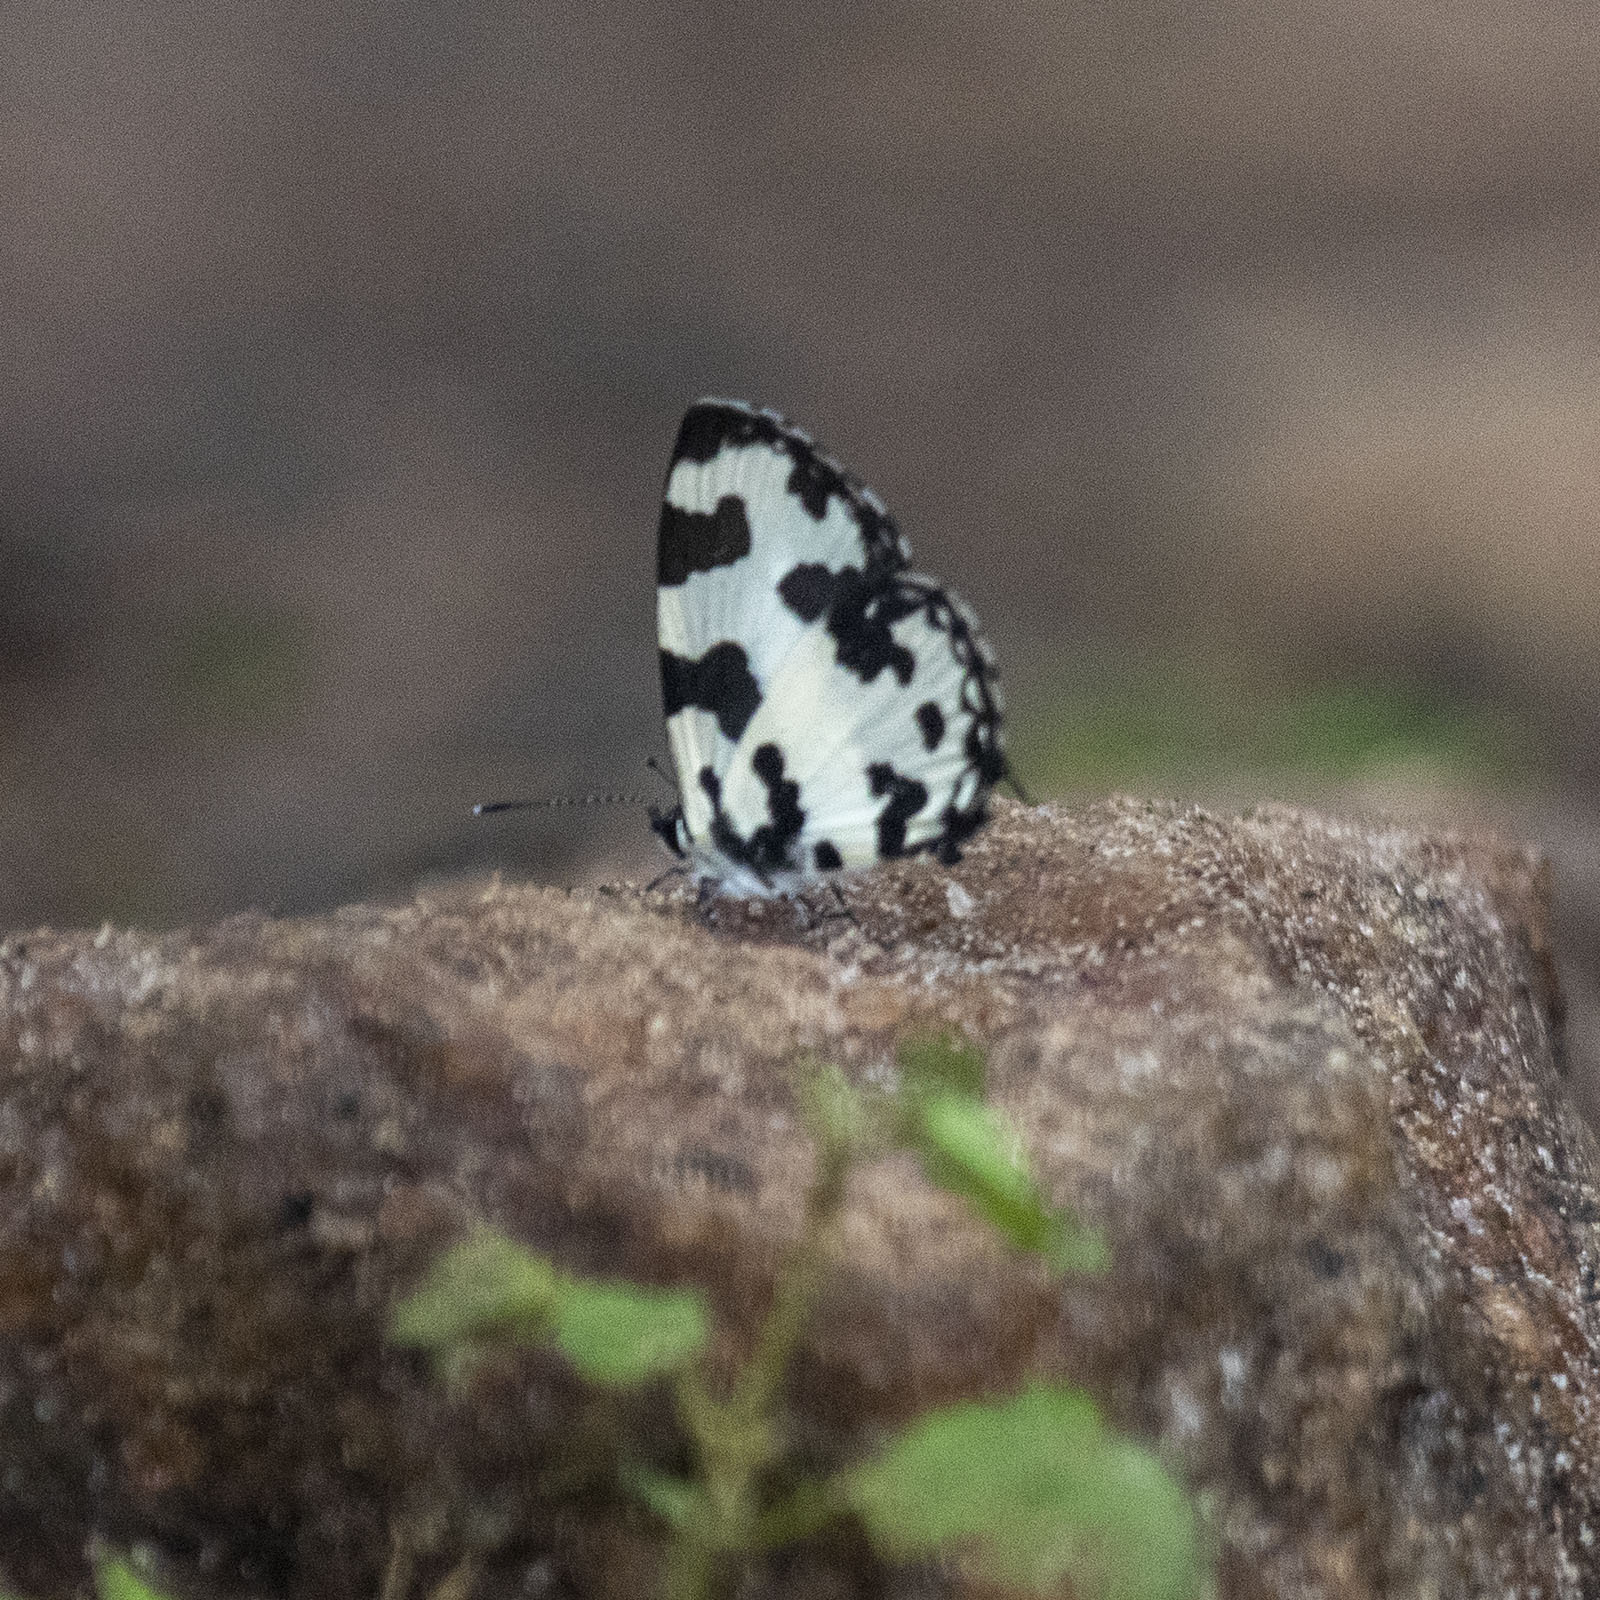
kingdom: Animalia
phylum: Arthropoda
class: Insecta
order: Lepidoptera
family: Lycaenidae
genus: Caleta
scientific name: Caleta decidia
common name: Angled pierrot
